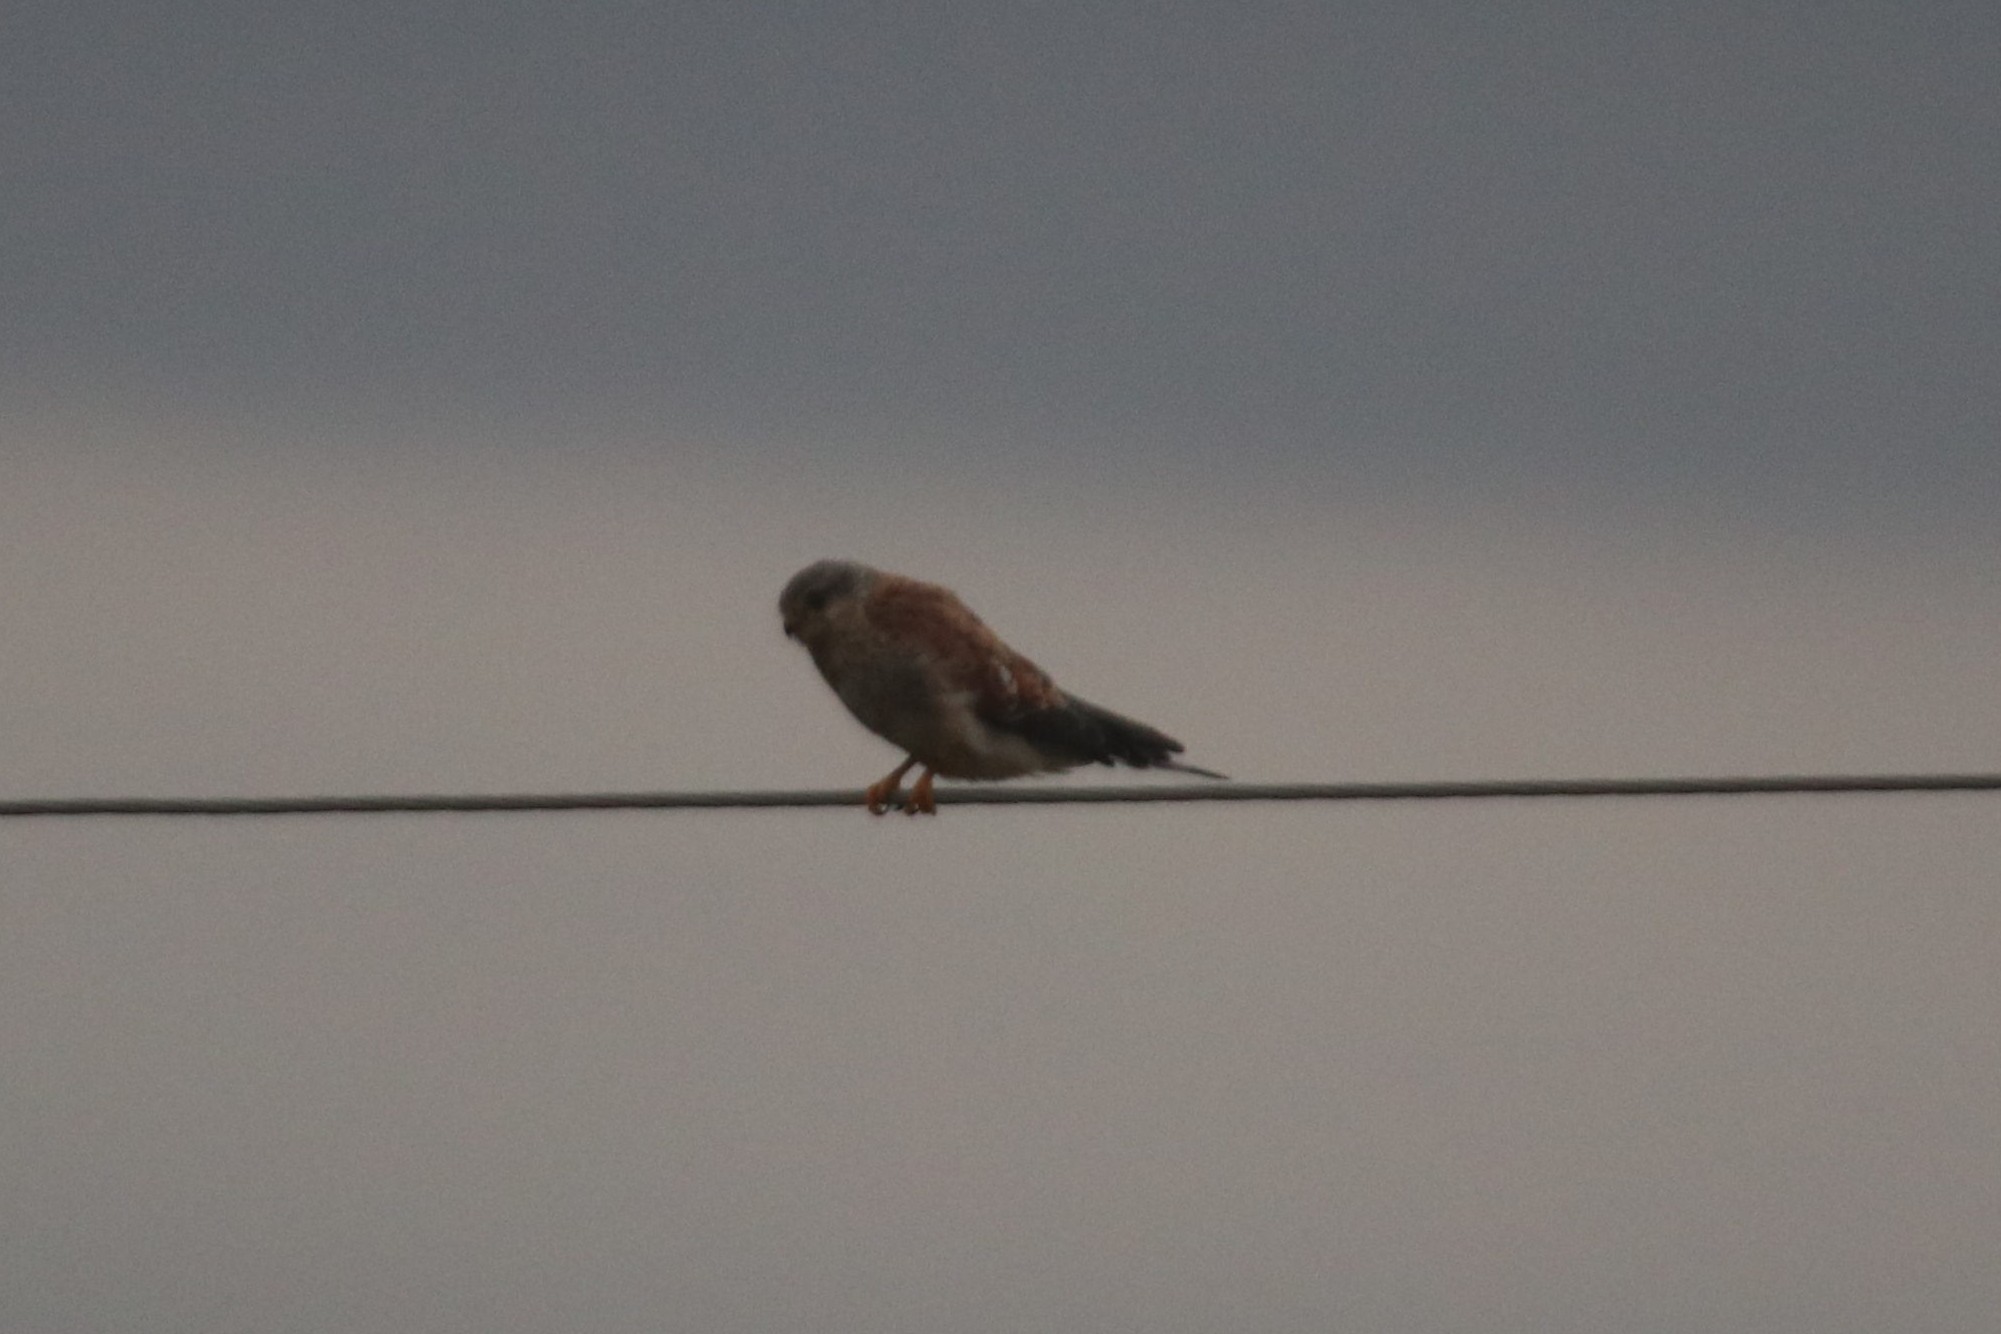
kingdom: Animalia
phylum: Chordata
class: Aves
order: Falconiformes
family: Falconidae
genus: Falco
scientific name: Falco tinnunculus
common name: Common kestrel
